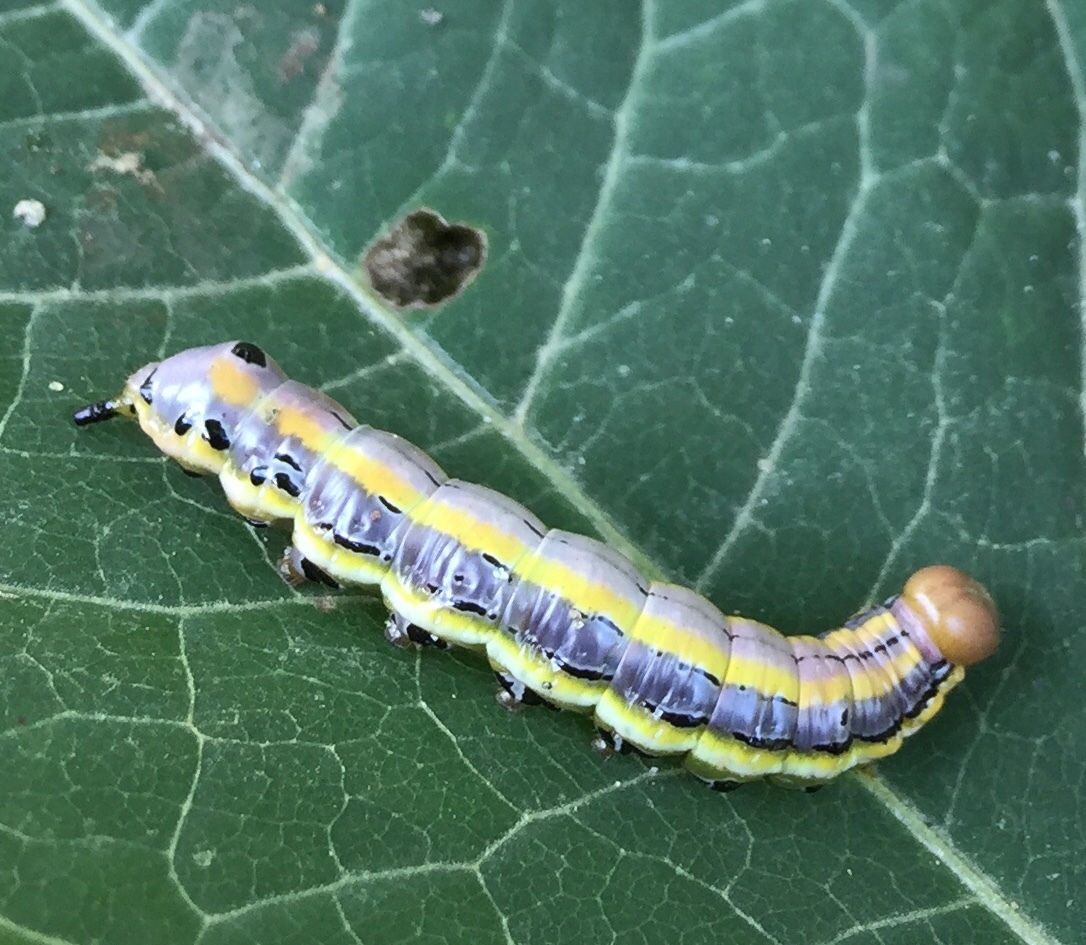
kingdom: Animalia
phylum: Arthropoda
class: Insecta
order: Lepidoptera
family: Notodontidae
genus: Dasylophia
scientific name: Dasylophia anguina
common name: Black-spotted prominent
